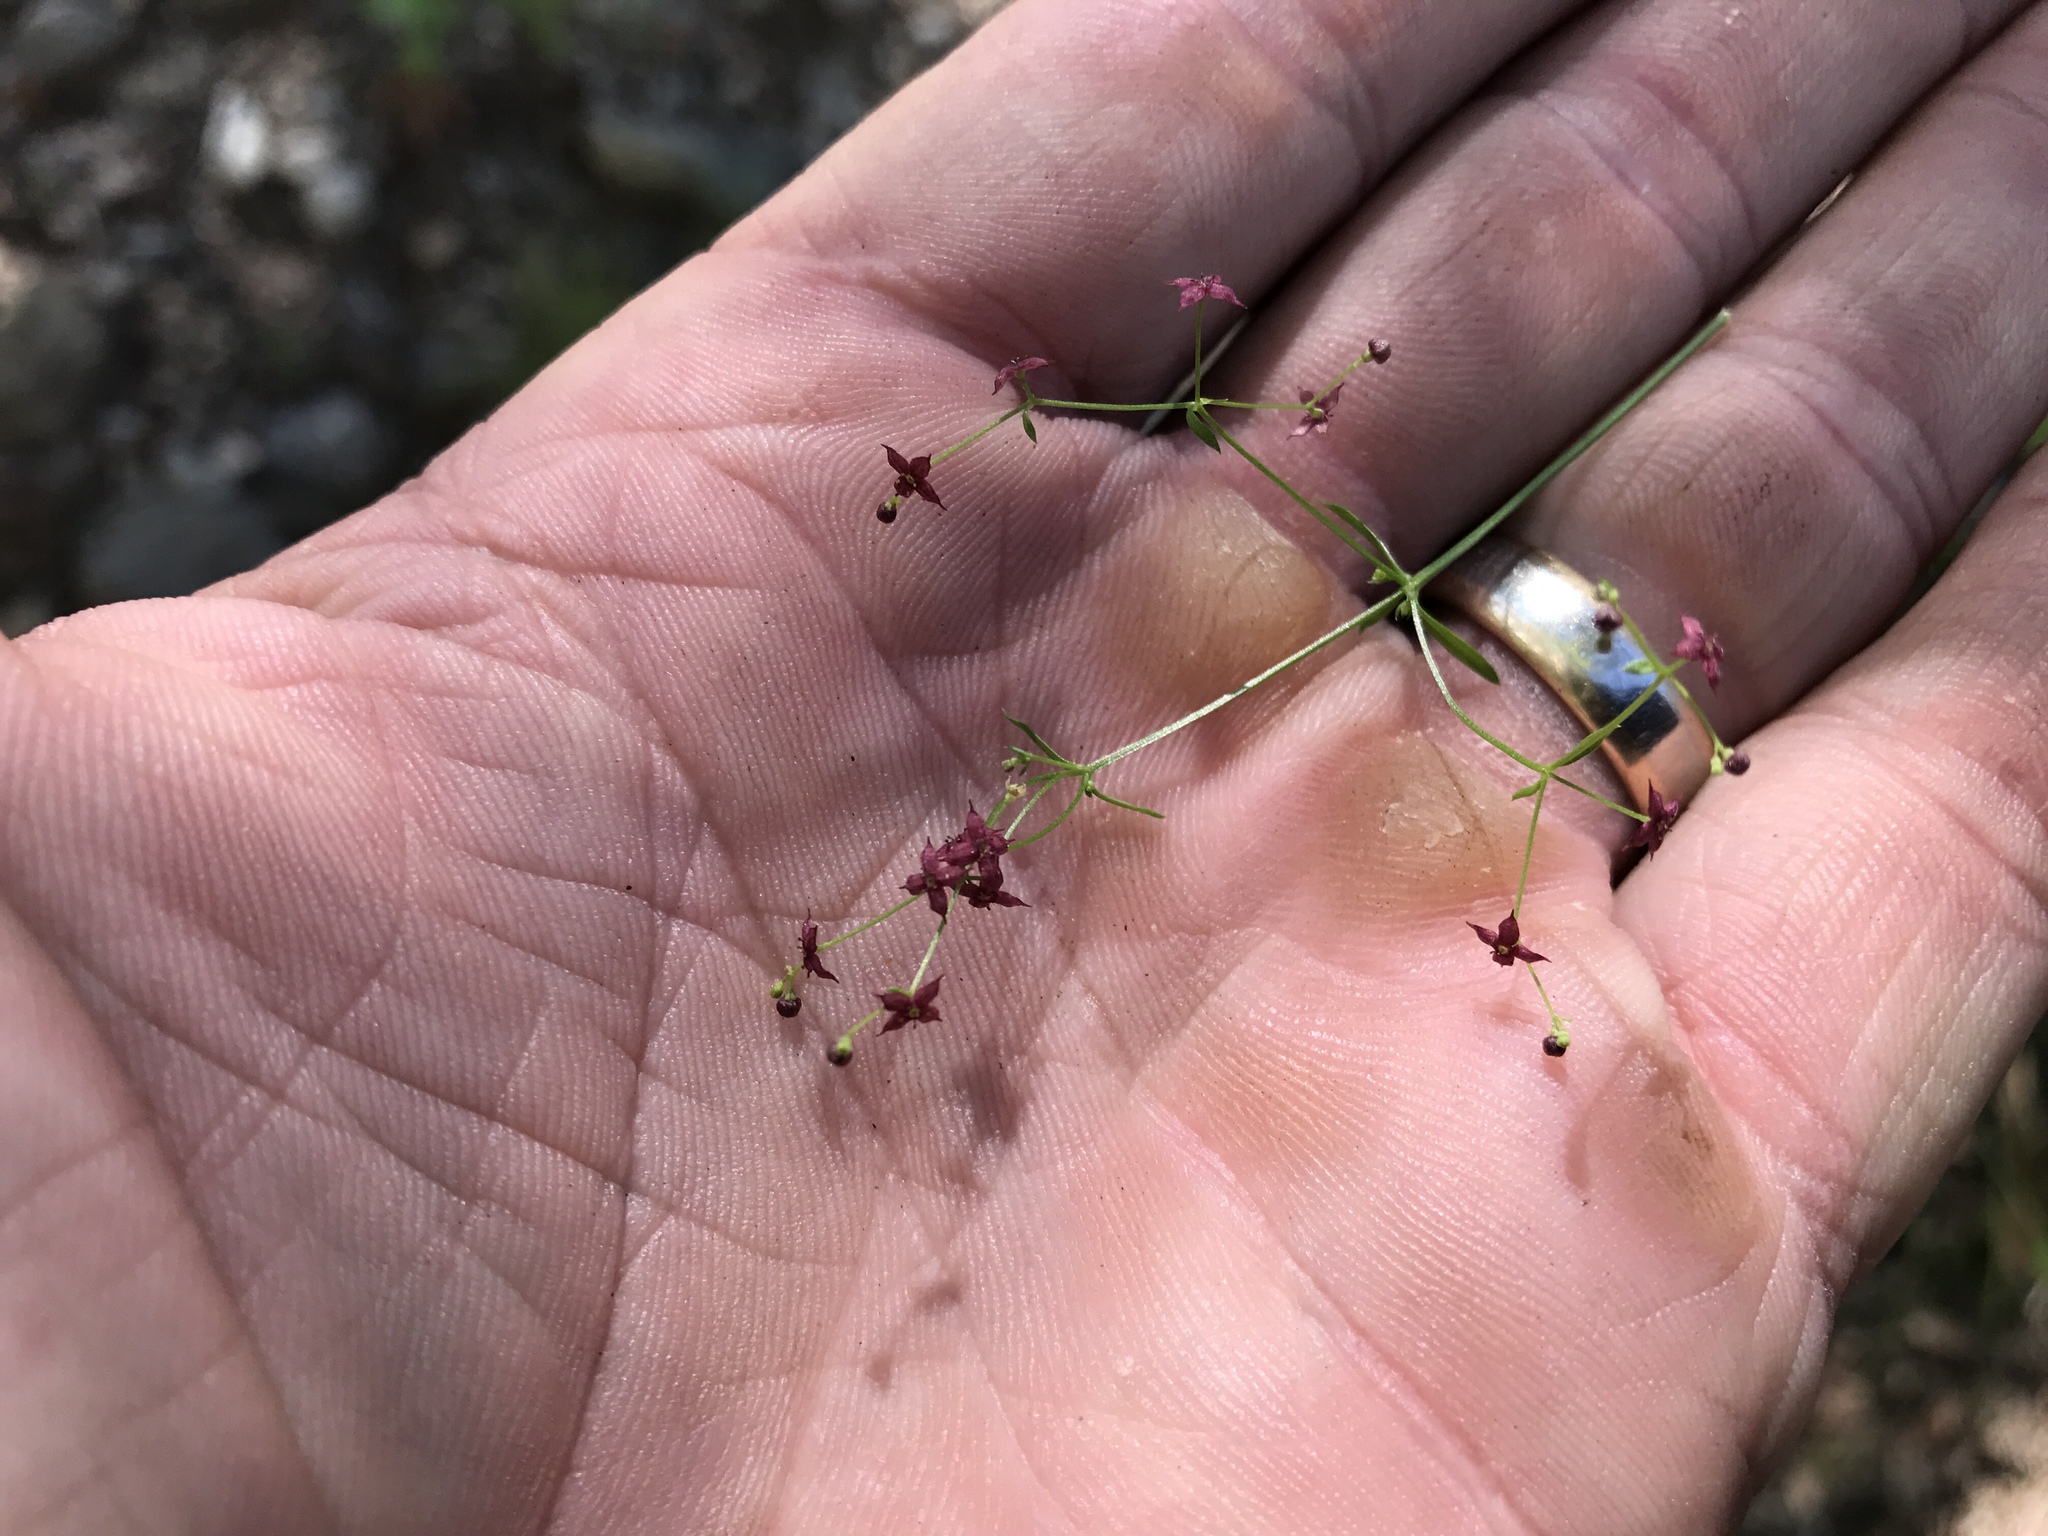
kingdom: Plantae
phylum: Tracheophyta
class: Magnoliopsida
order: Gentianales
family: Rubiaceae
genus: Galium
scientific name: Galium wrightii
